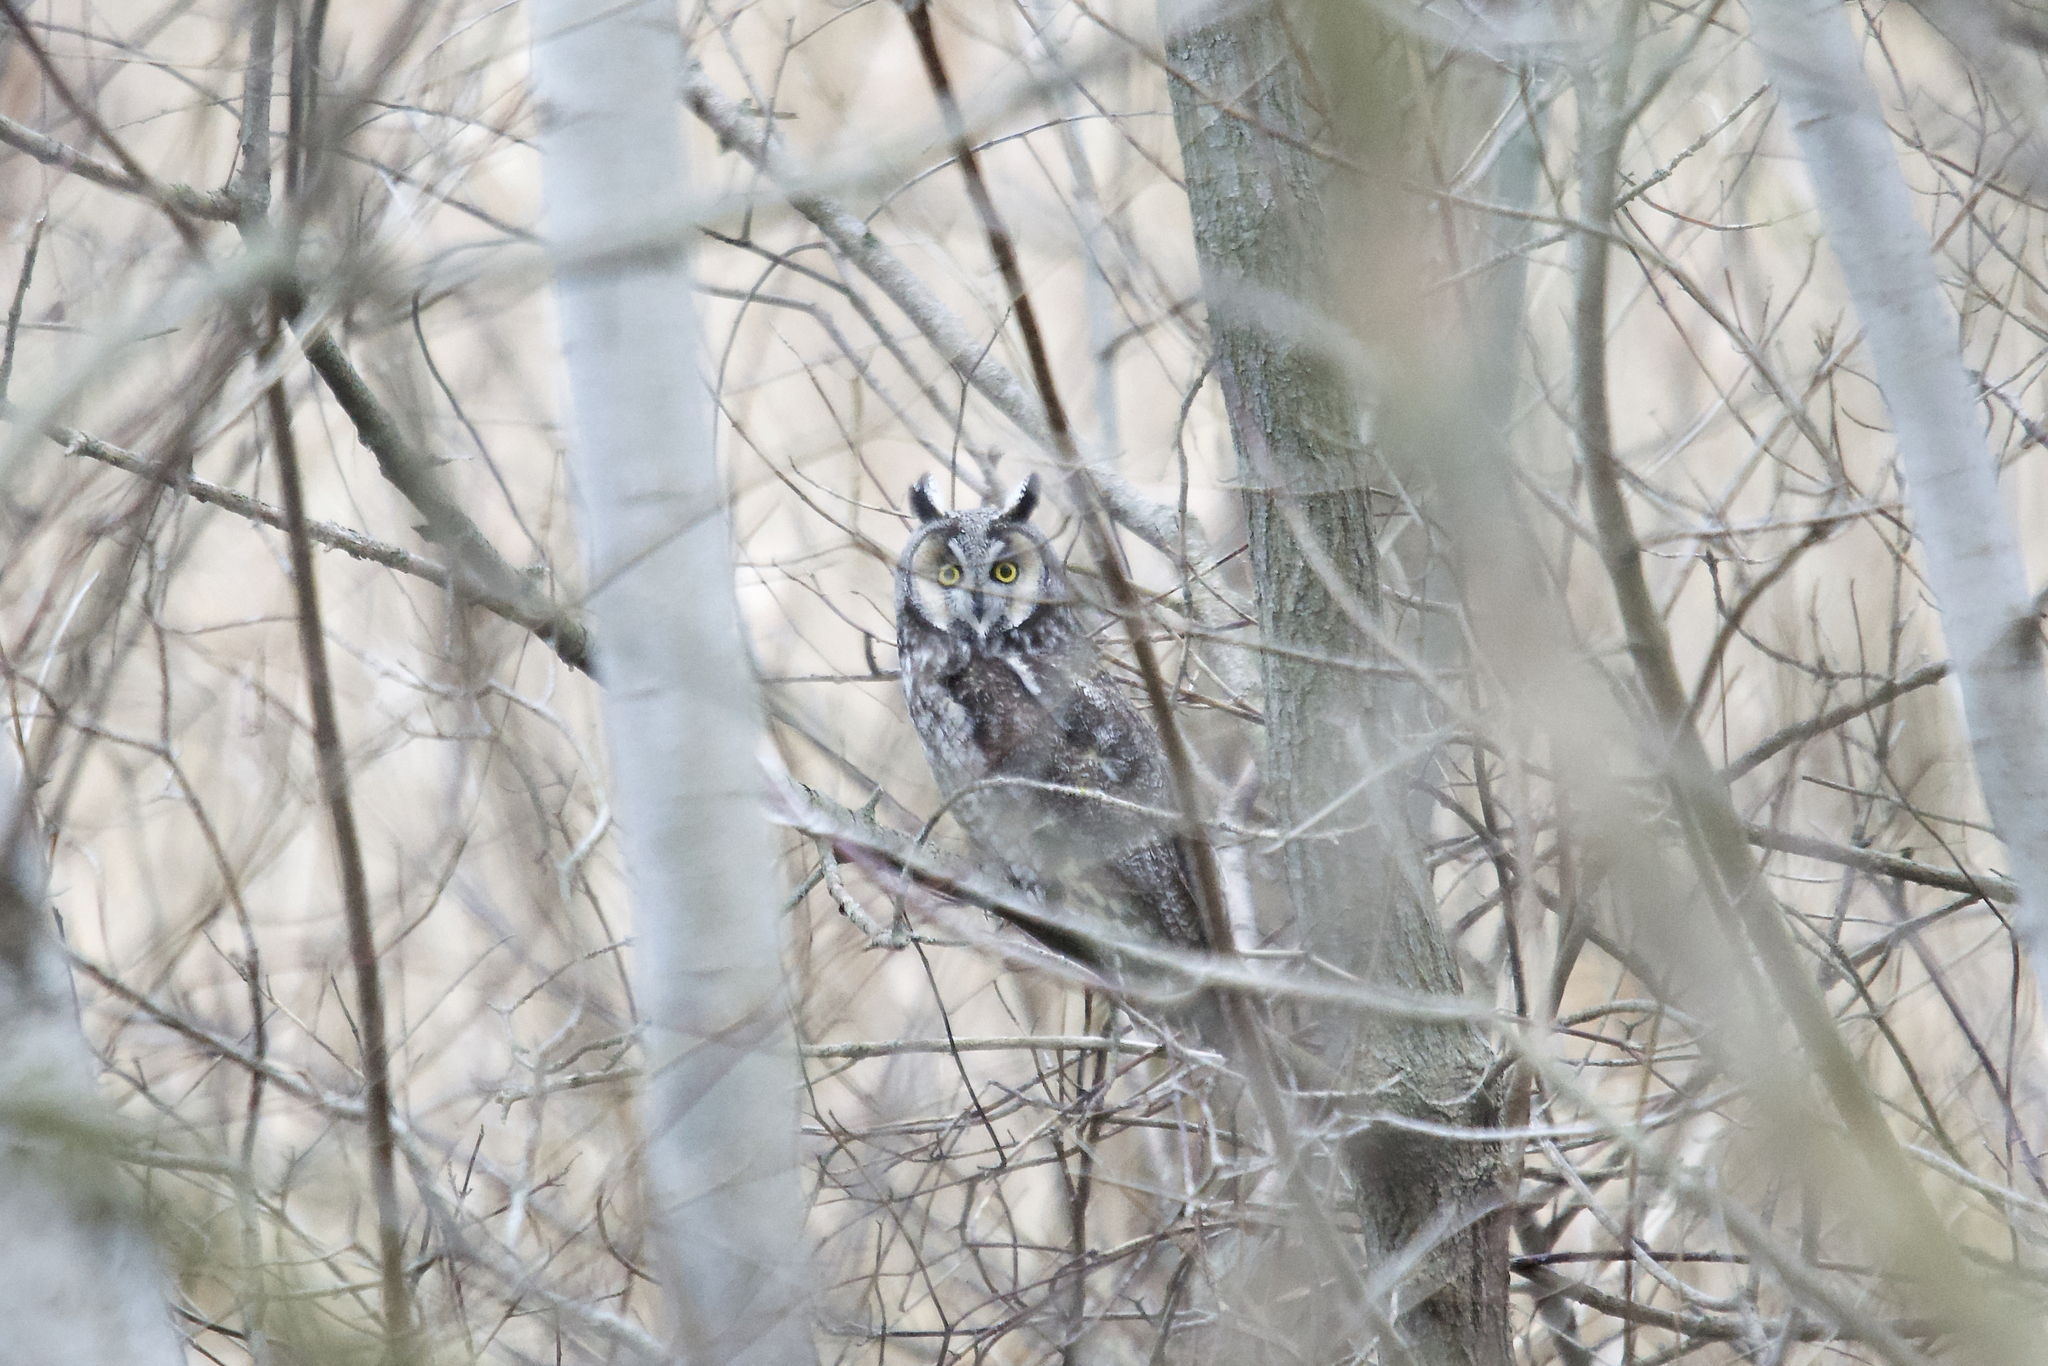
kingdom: Animalia
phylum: Chordata
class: Aves
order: Strigiformes
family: Strigidae
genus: Asio
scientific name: Asio otus
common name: Long-eared owl
